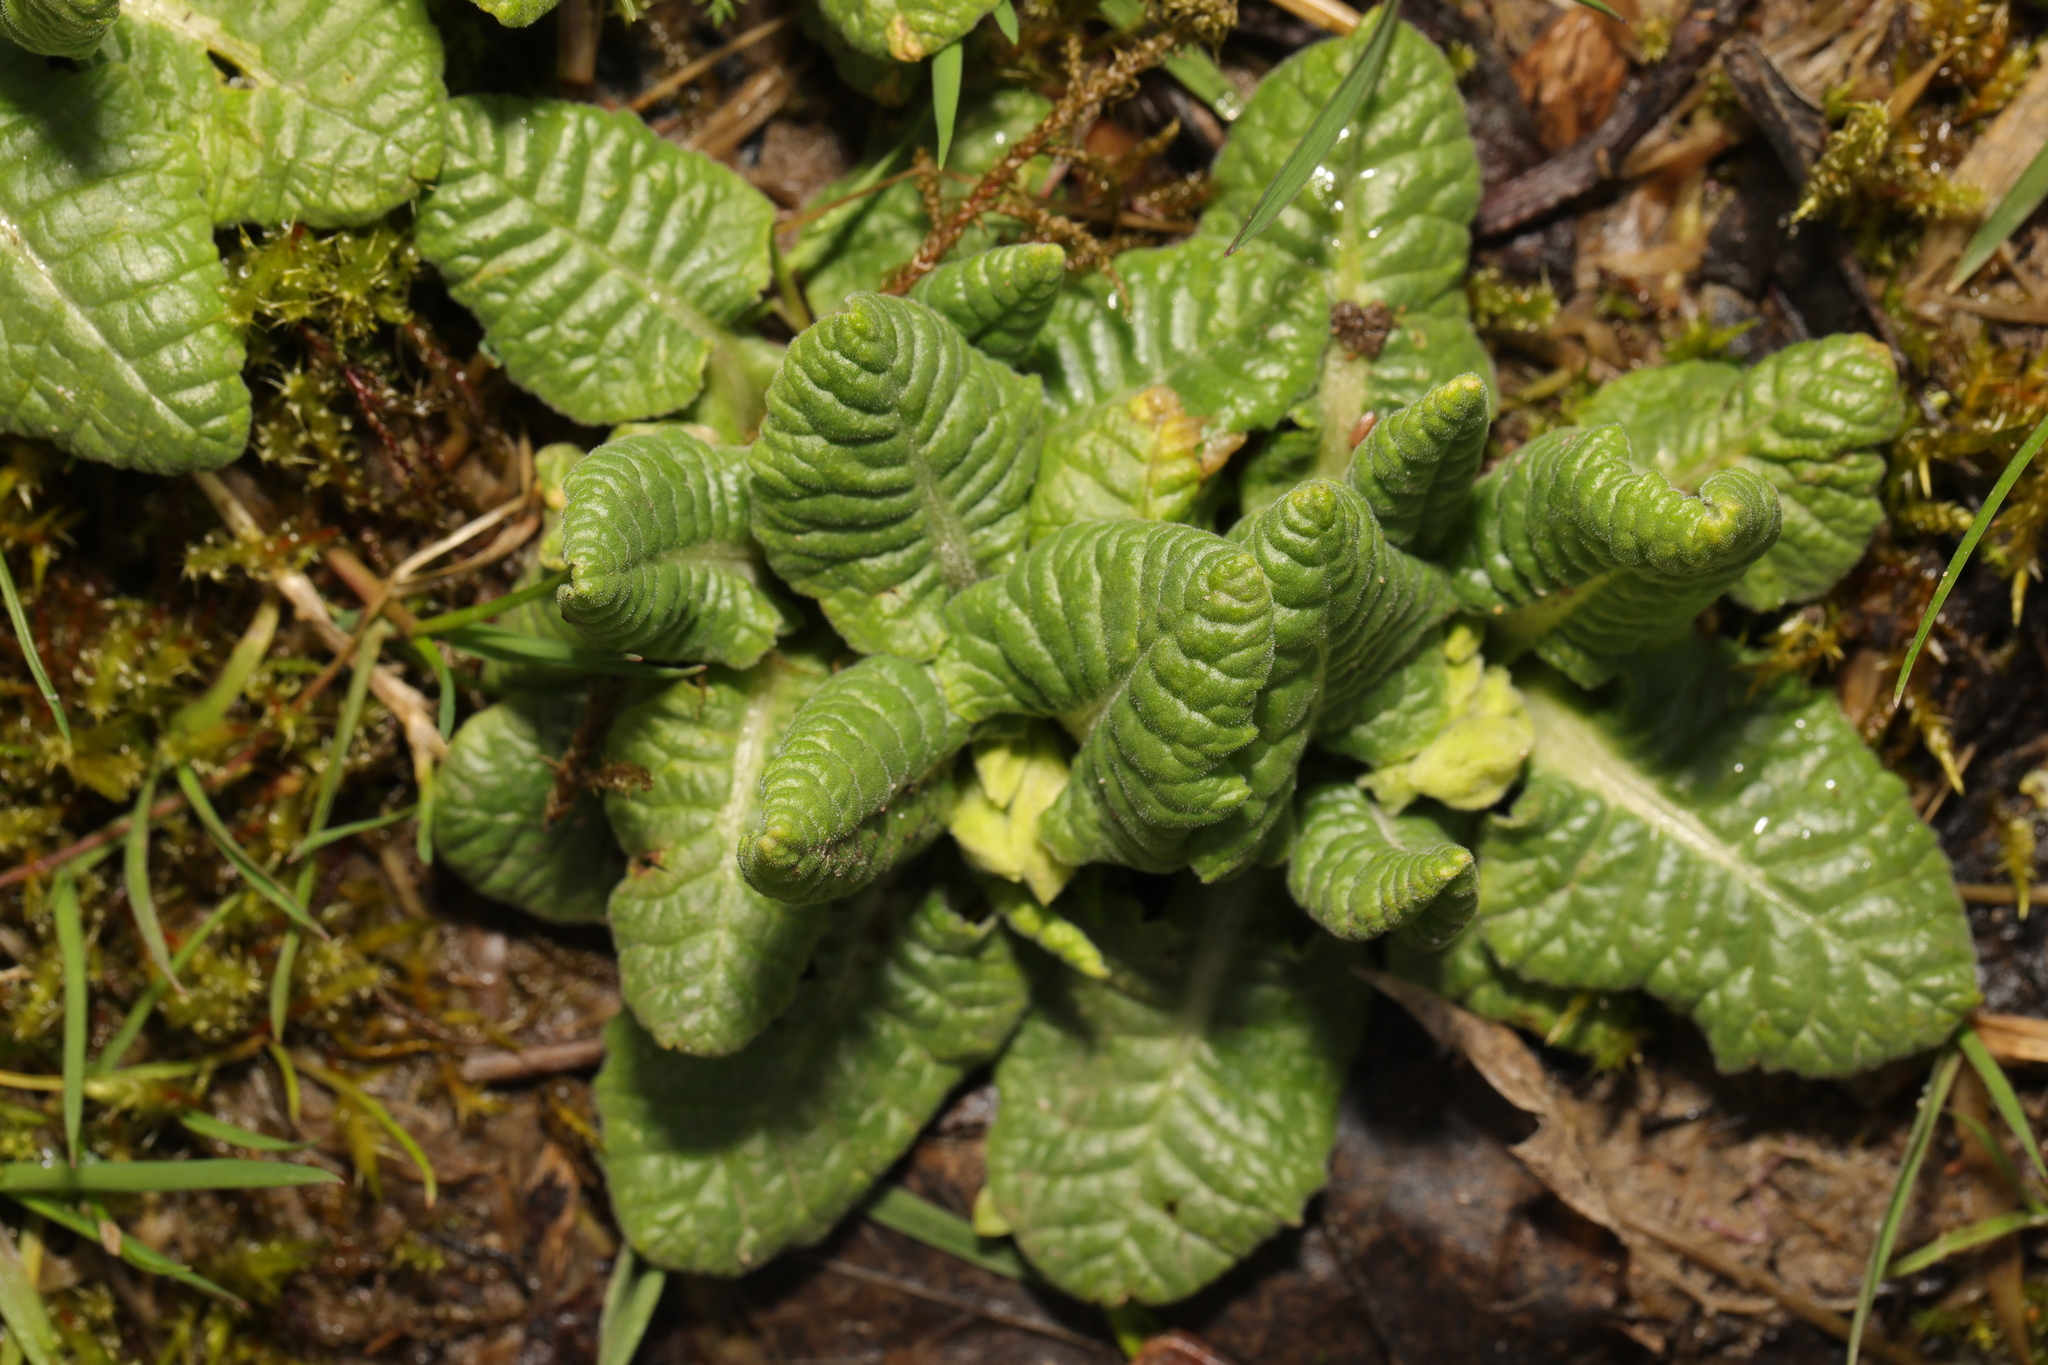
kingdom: Plantae
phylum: Tracheophyta
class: Magnoliopsida
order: Ericales
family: Primulaceae
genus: Primula
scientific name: Primula veris
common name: Cowslip
